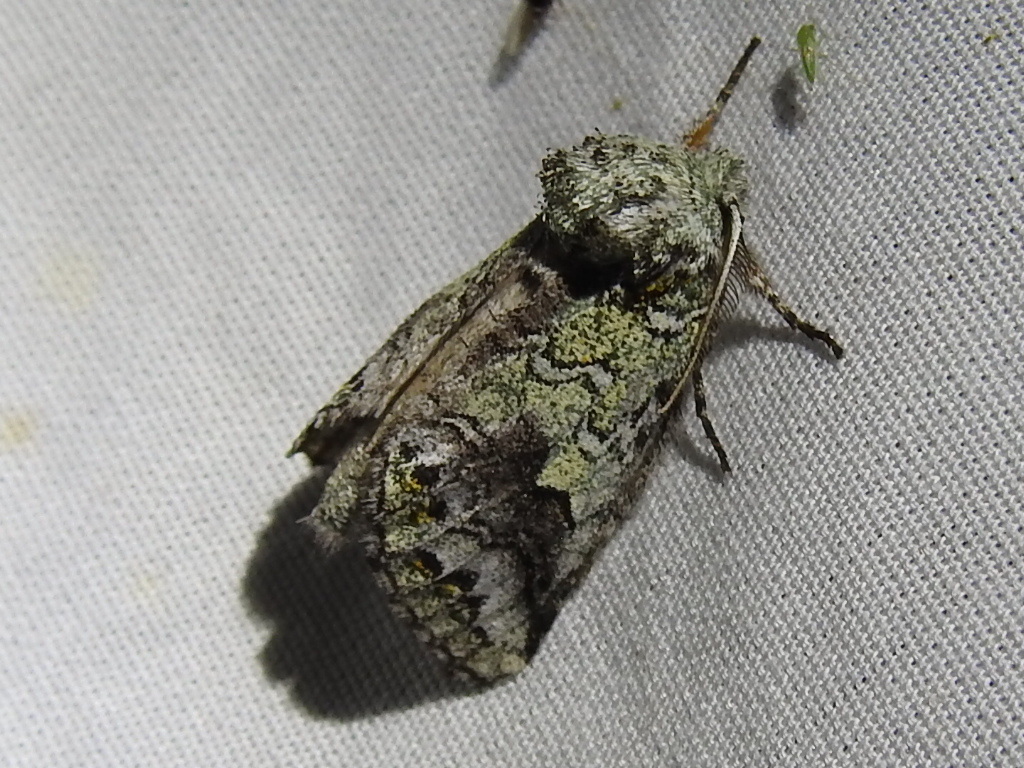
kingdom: Animalia
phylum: Arthropoda
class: Insecta
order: Lepidoptera
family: Notodontidae
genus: Litodonta
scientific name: Litodonta hydromeli
